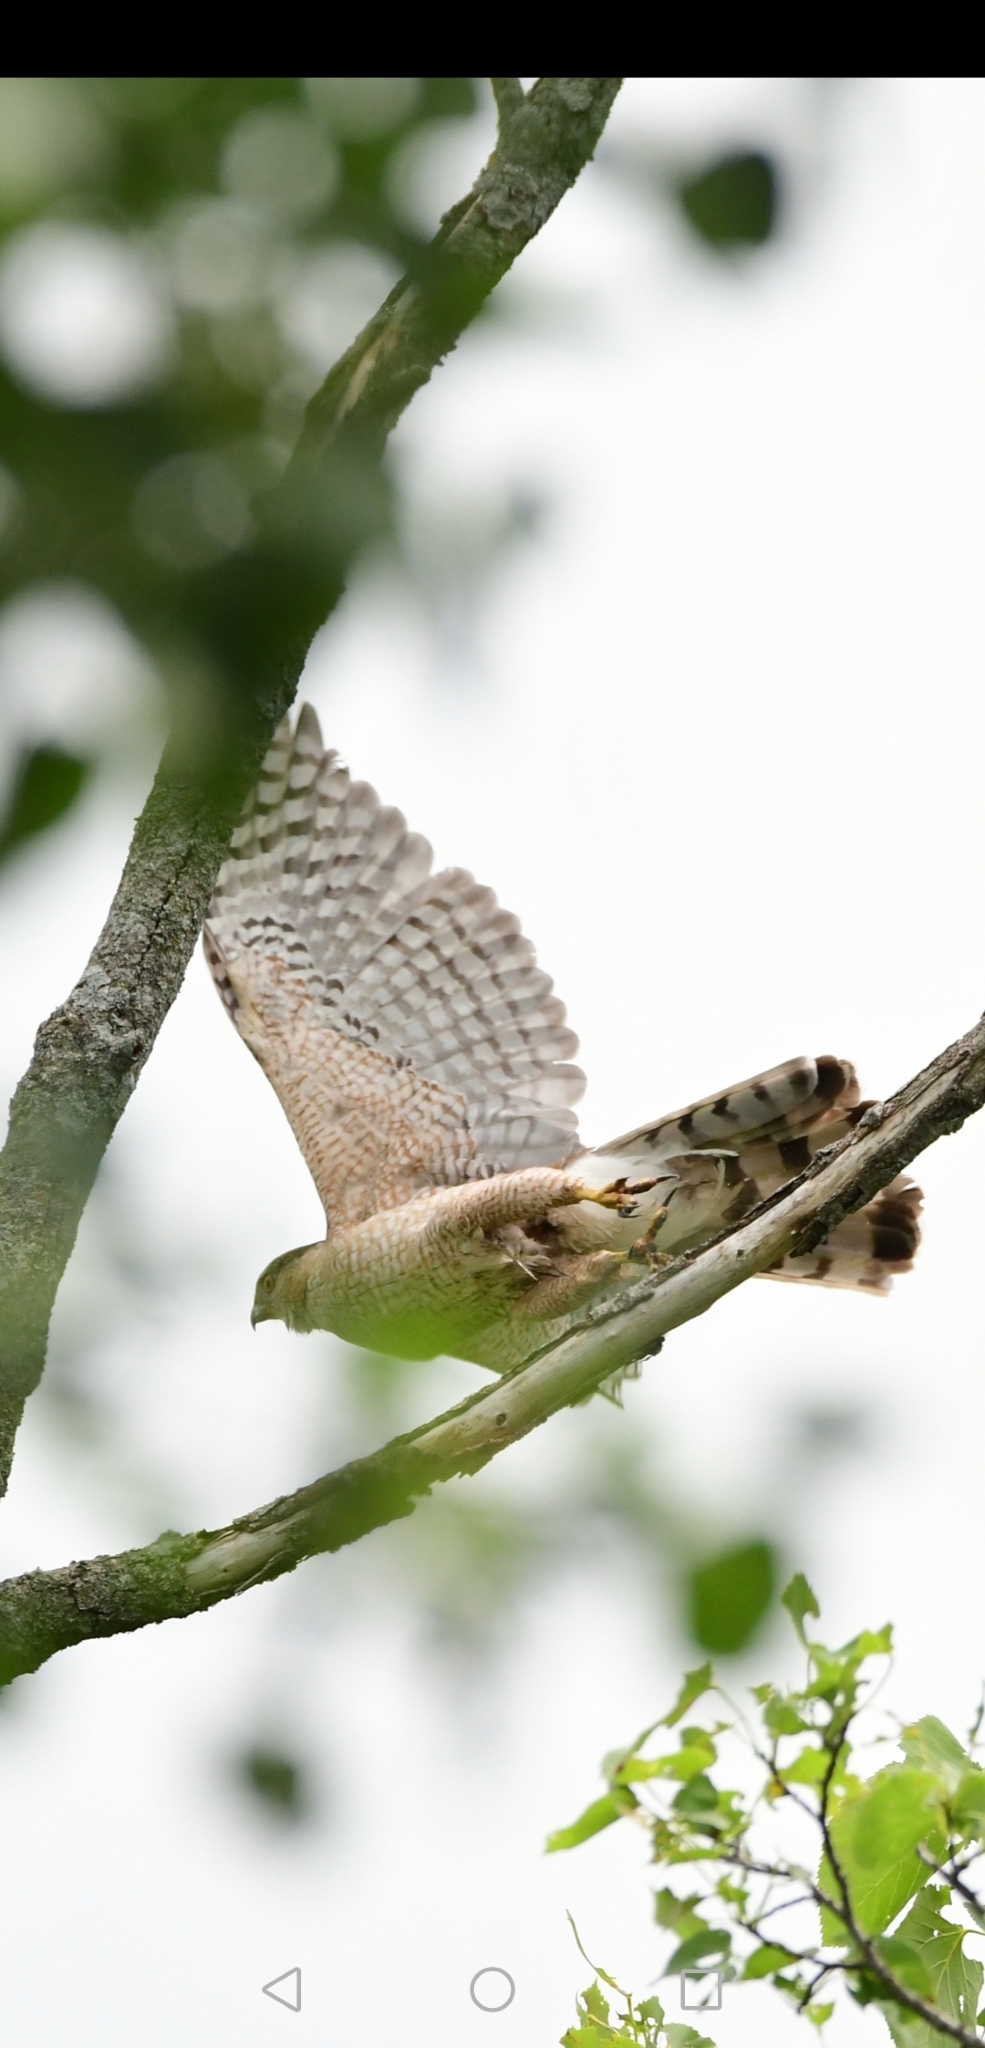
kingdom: Animalia
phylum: Chordata
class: Aves
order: Accipitriformes
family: Accipitridae
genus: Accipiter
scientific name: Accipiter cooperii
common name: Cooper's hawk
